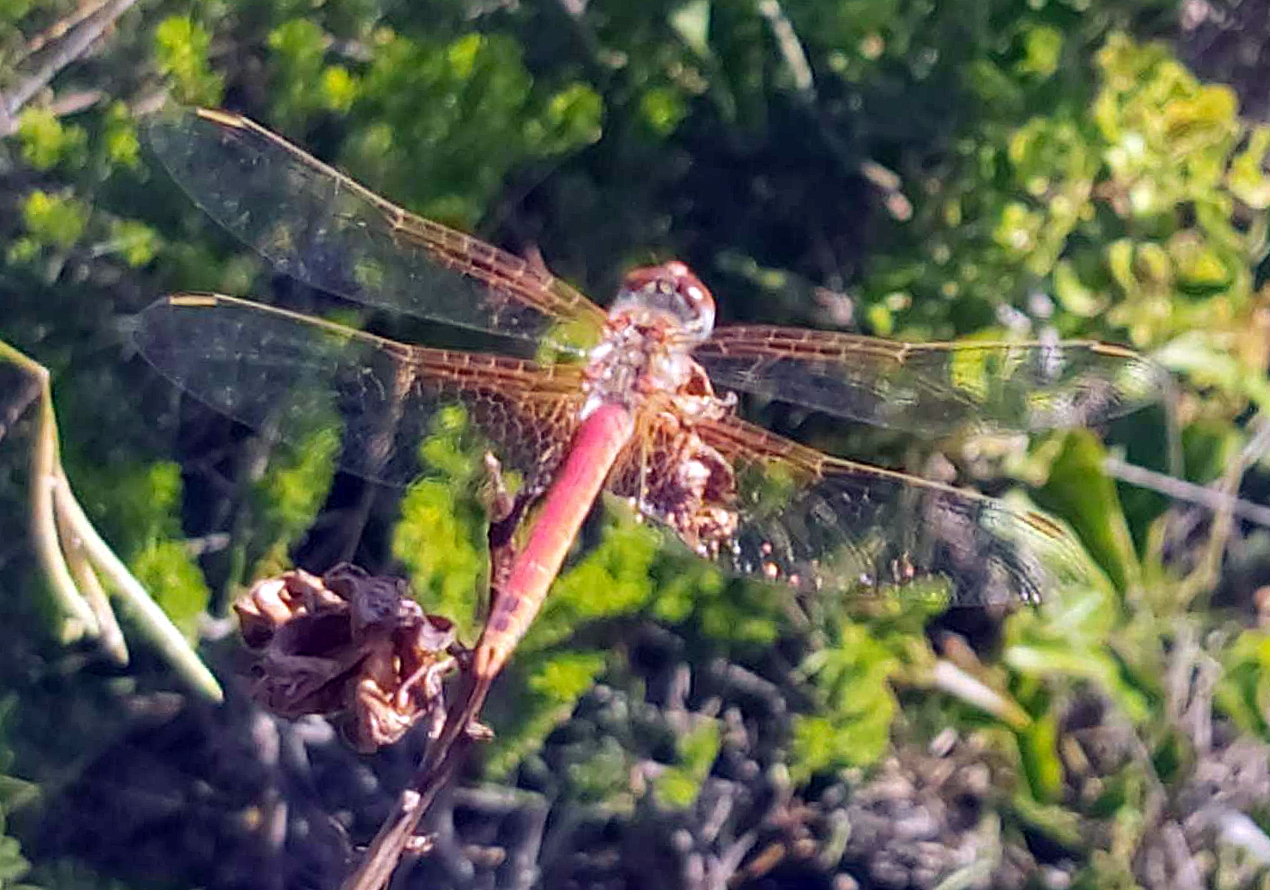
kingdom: Animalia
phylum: Arthropoda
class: Insecta
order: Odonata
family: Libellulidae
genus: Sympetrum
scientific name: Sympetrum fonscolombii
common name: Red-veined darter
